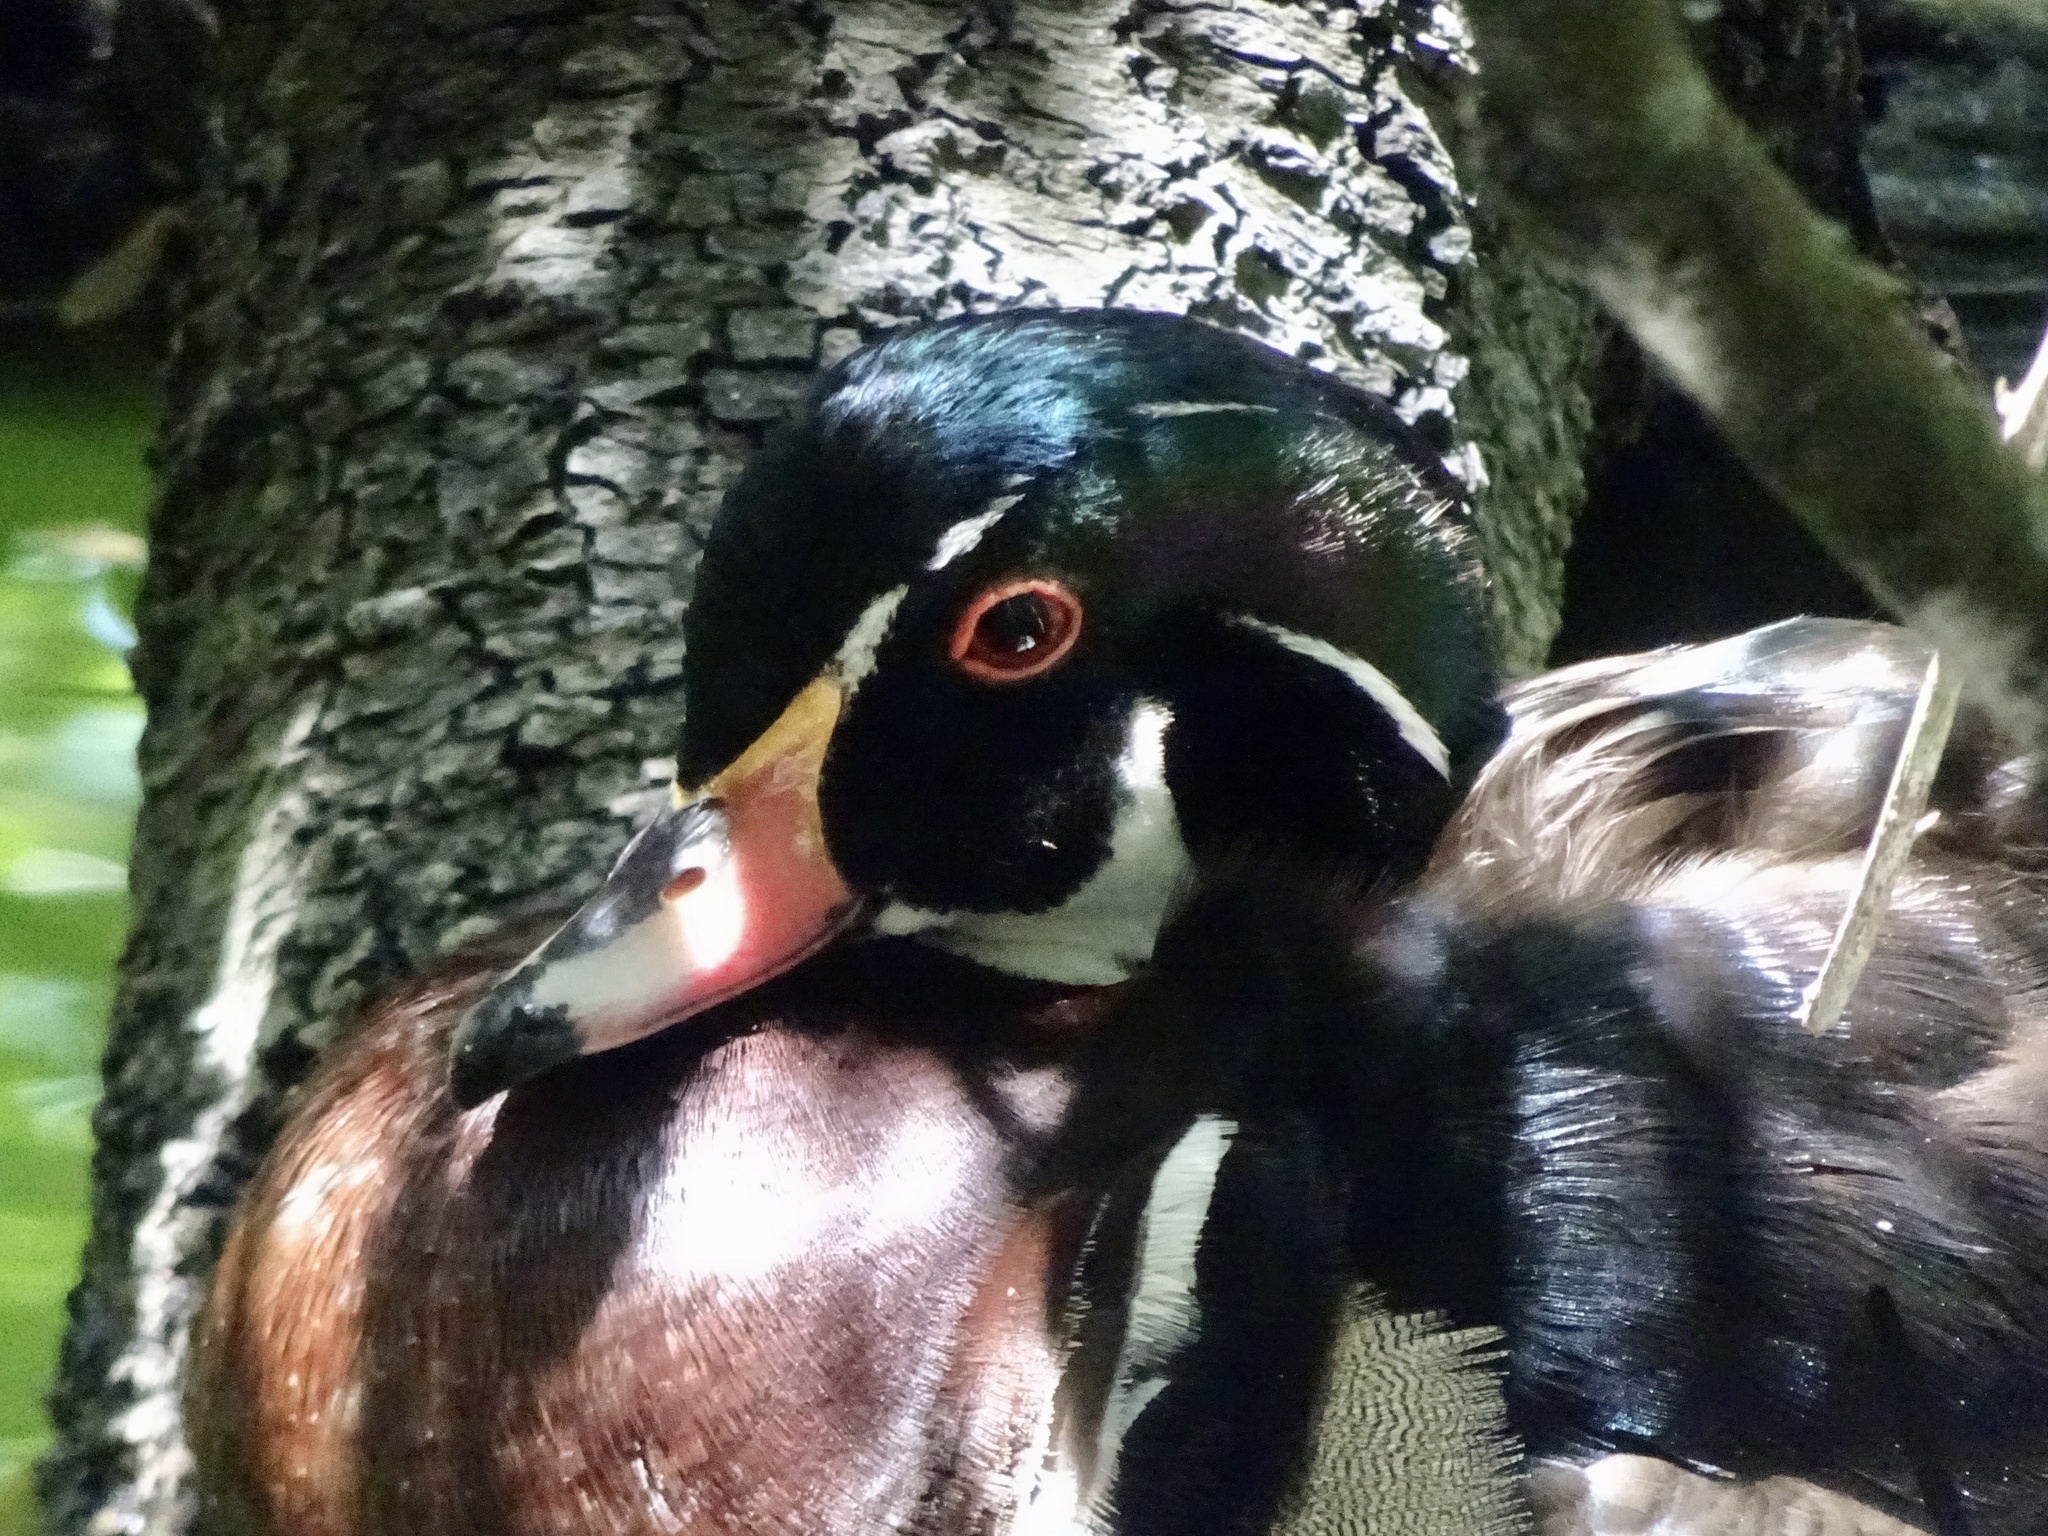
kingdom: Animalia
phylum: Chordata
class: Aves
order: Anseriformes
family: Anatidae
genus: Aix
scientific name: Aix sponsa
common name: Wood duck
